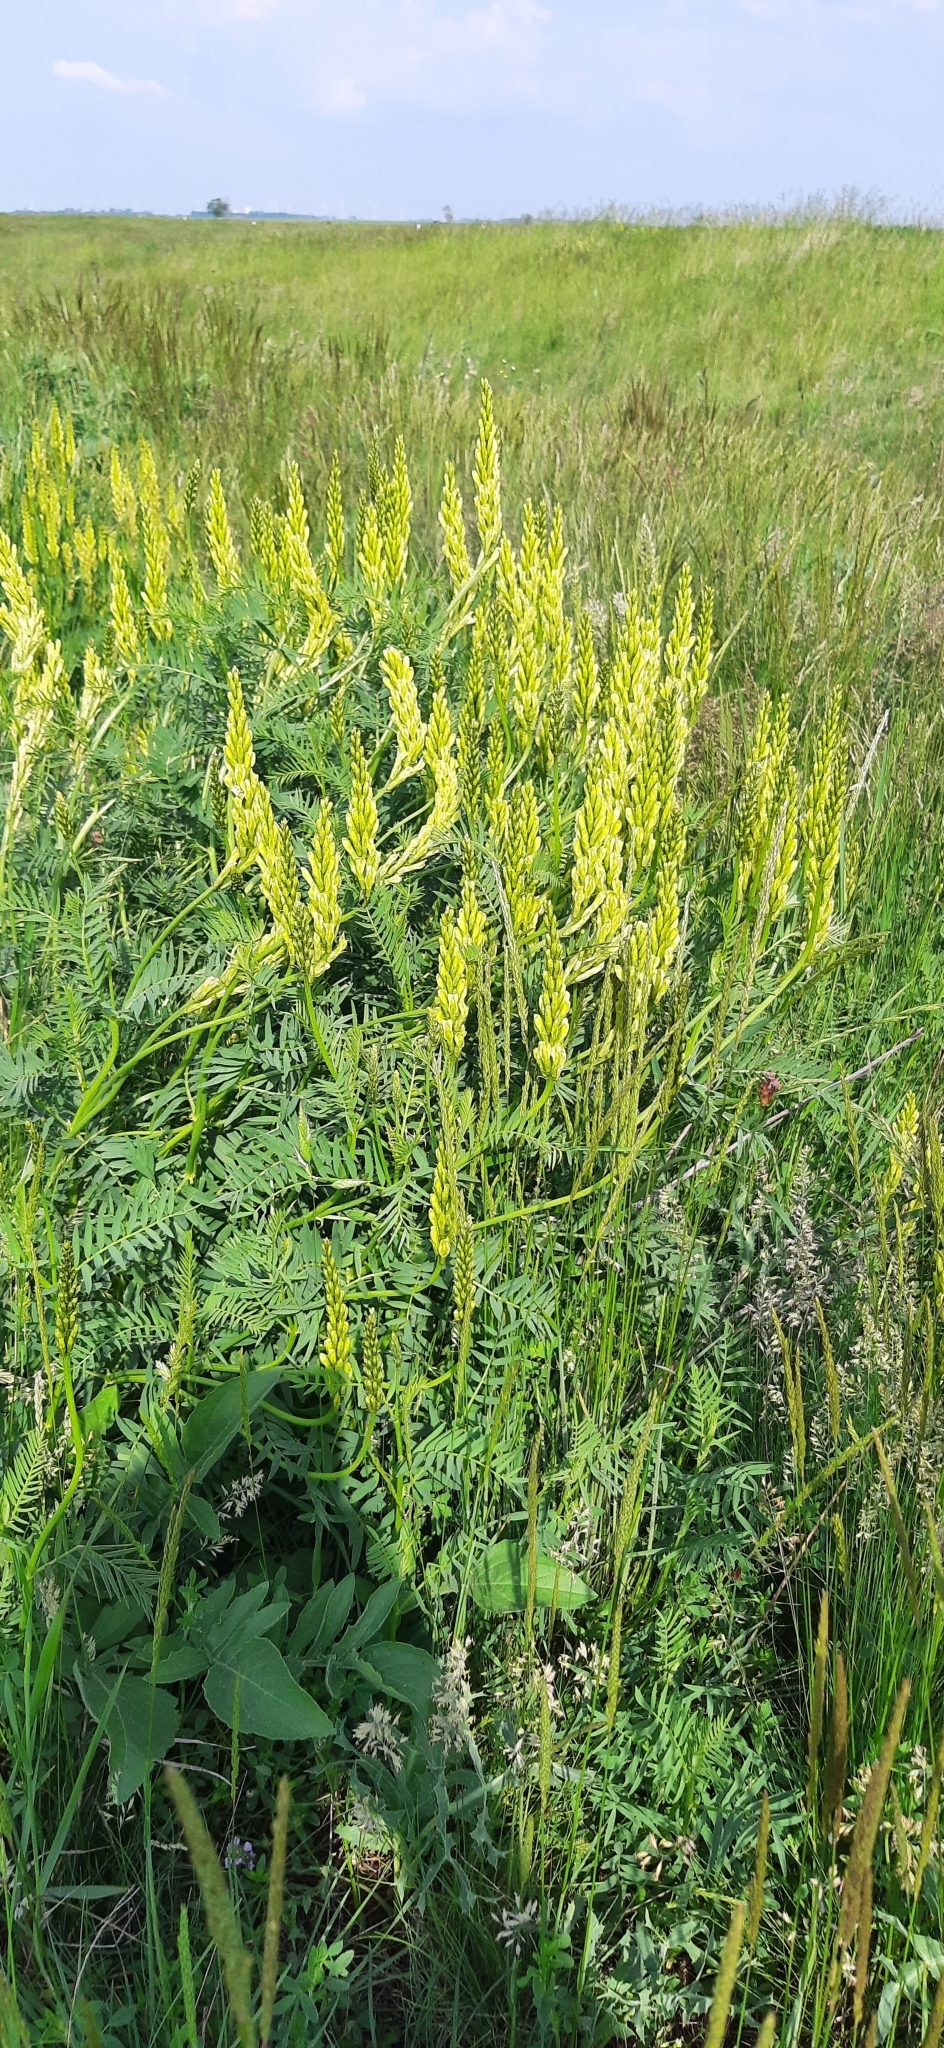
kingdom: Plantae
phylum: Tracheophyta
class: Magnoliopsida
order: Fabales
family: Fabaceae
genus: Astragalus
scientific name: Astragalus asper
